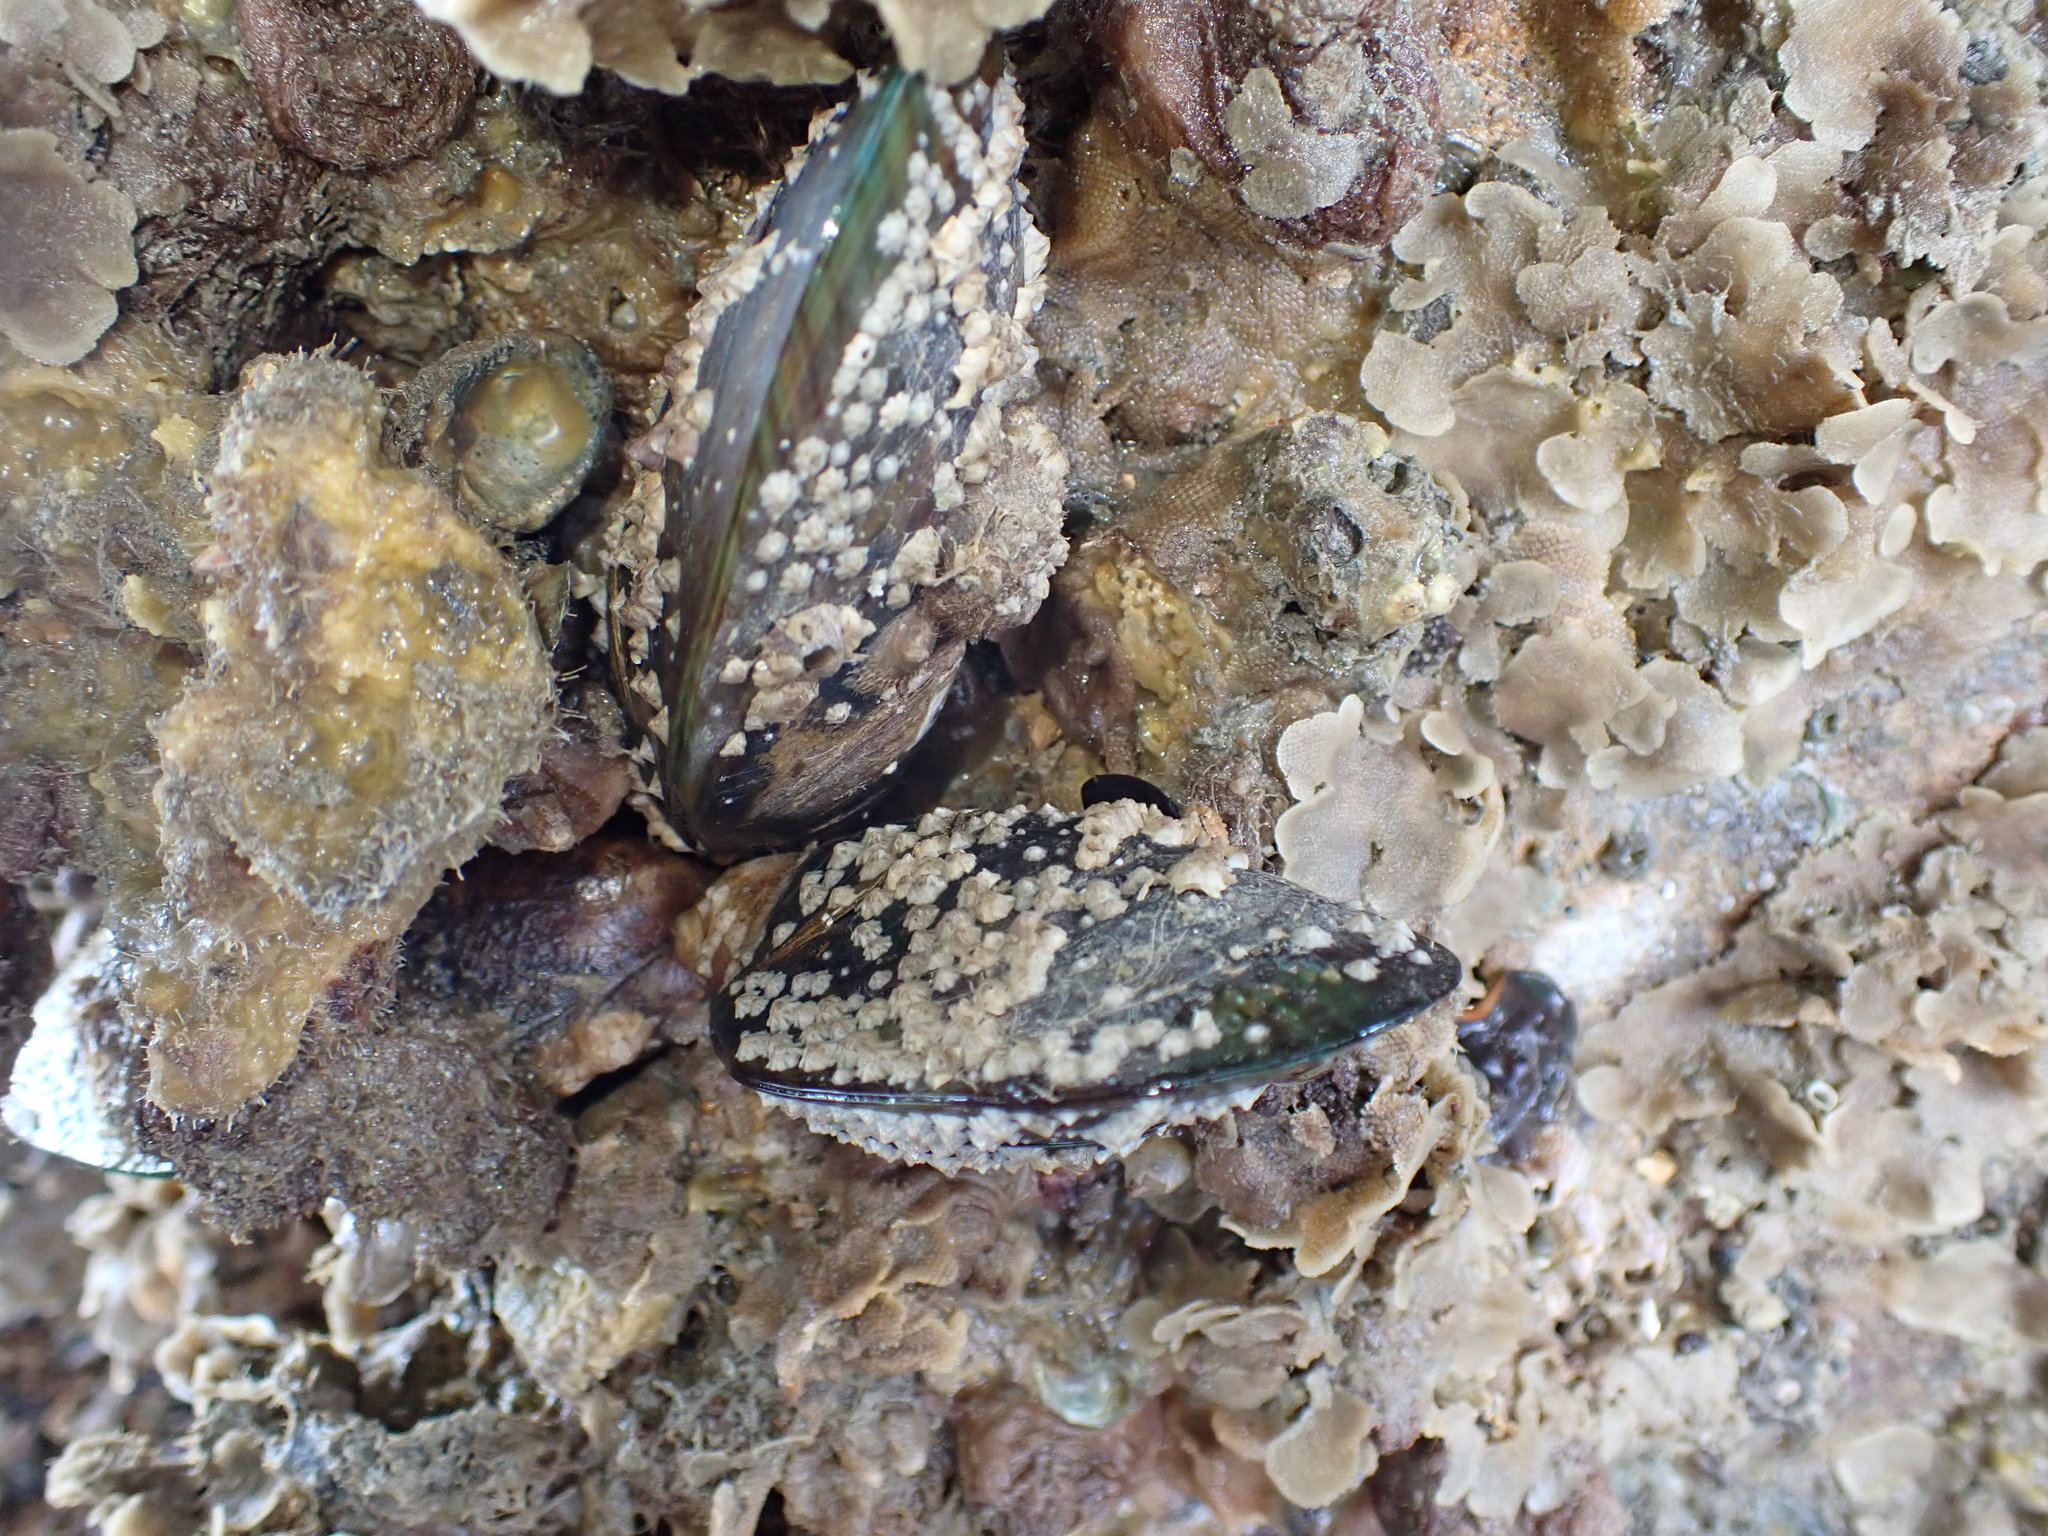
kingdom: Animalia
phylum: Mollusca
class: Bivalvia
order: Mytilida
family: Mytilidae
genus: Perna
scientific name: Perna canaliculus
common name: New zealand greenshelltm
